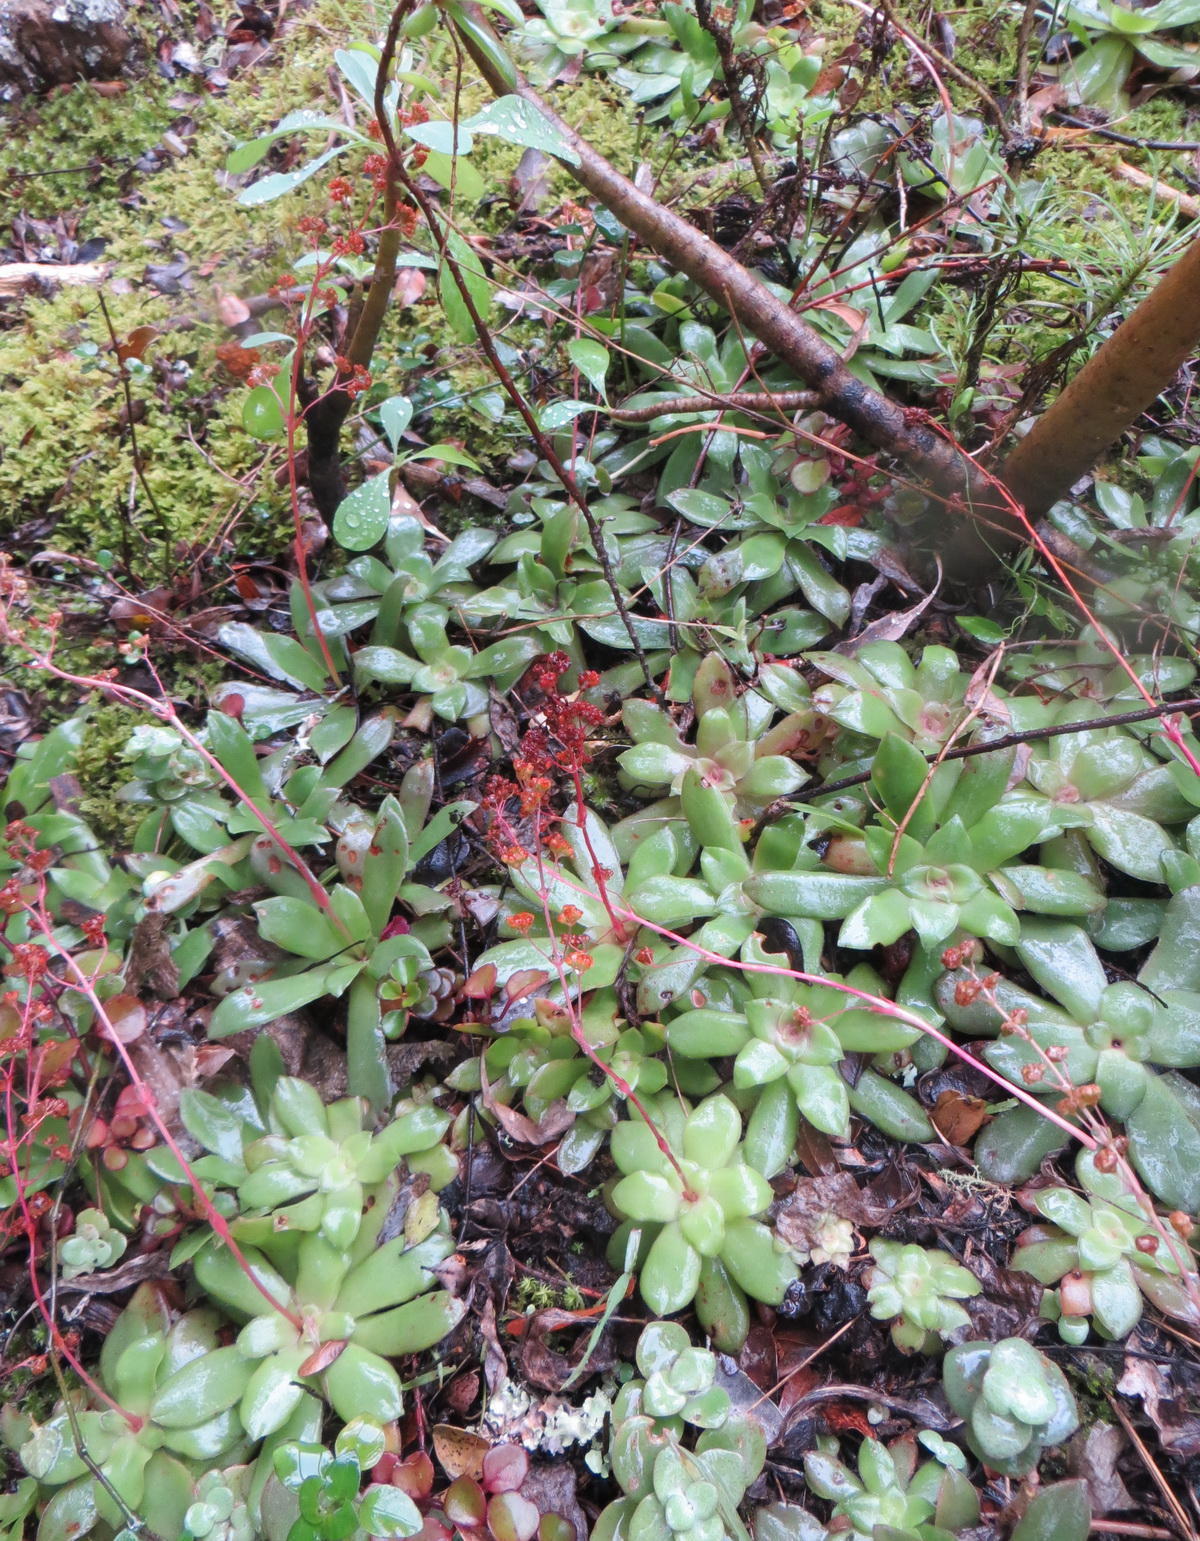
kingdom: Plantae
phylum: Tracheophyta
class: Magnoliopsida
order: Saxifragales
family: Crassulaceae
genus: Crassula
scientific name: Crassula orbicularis
